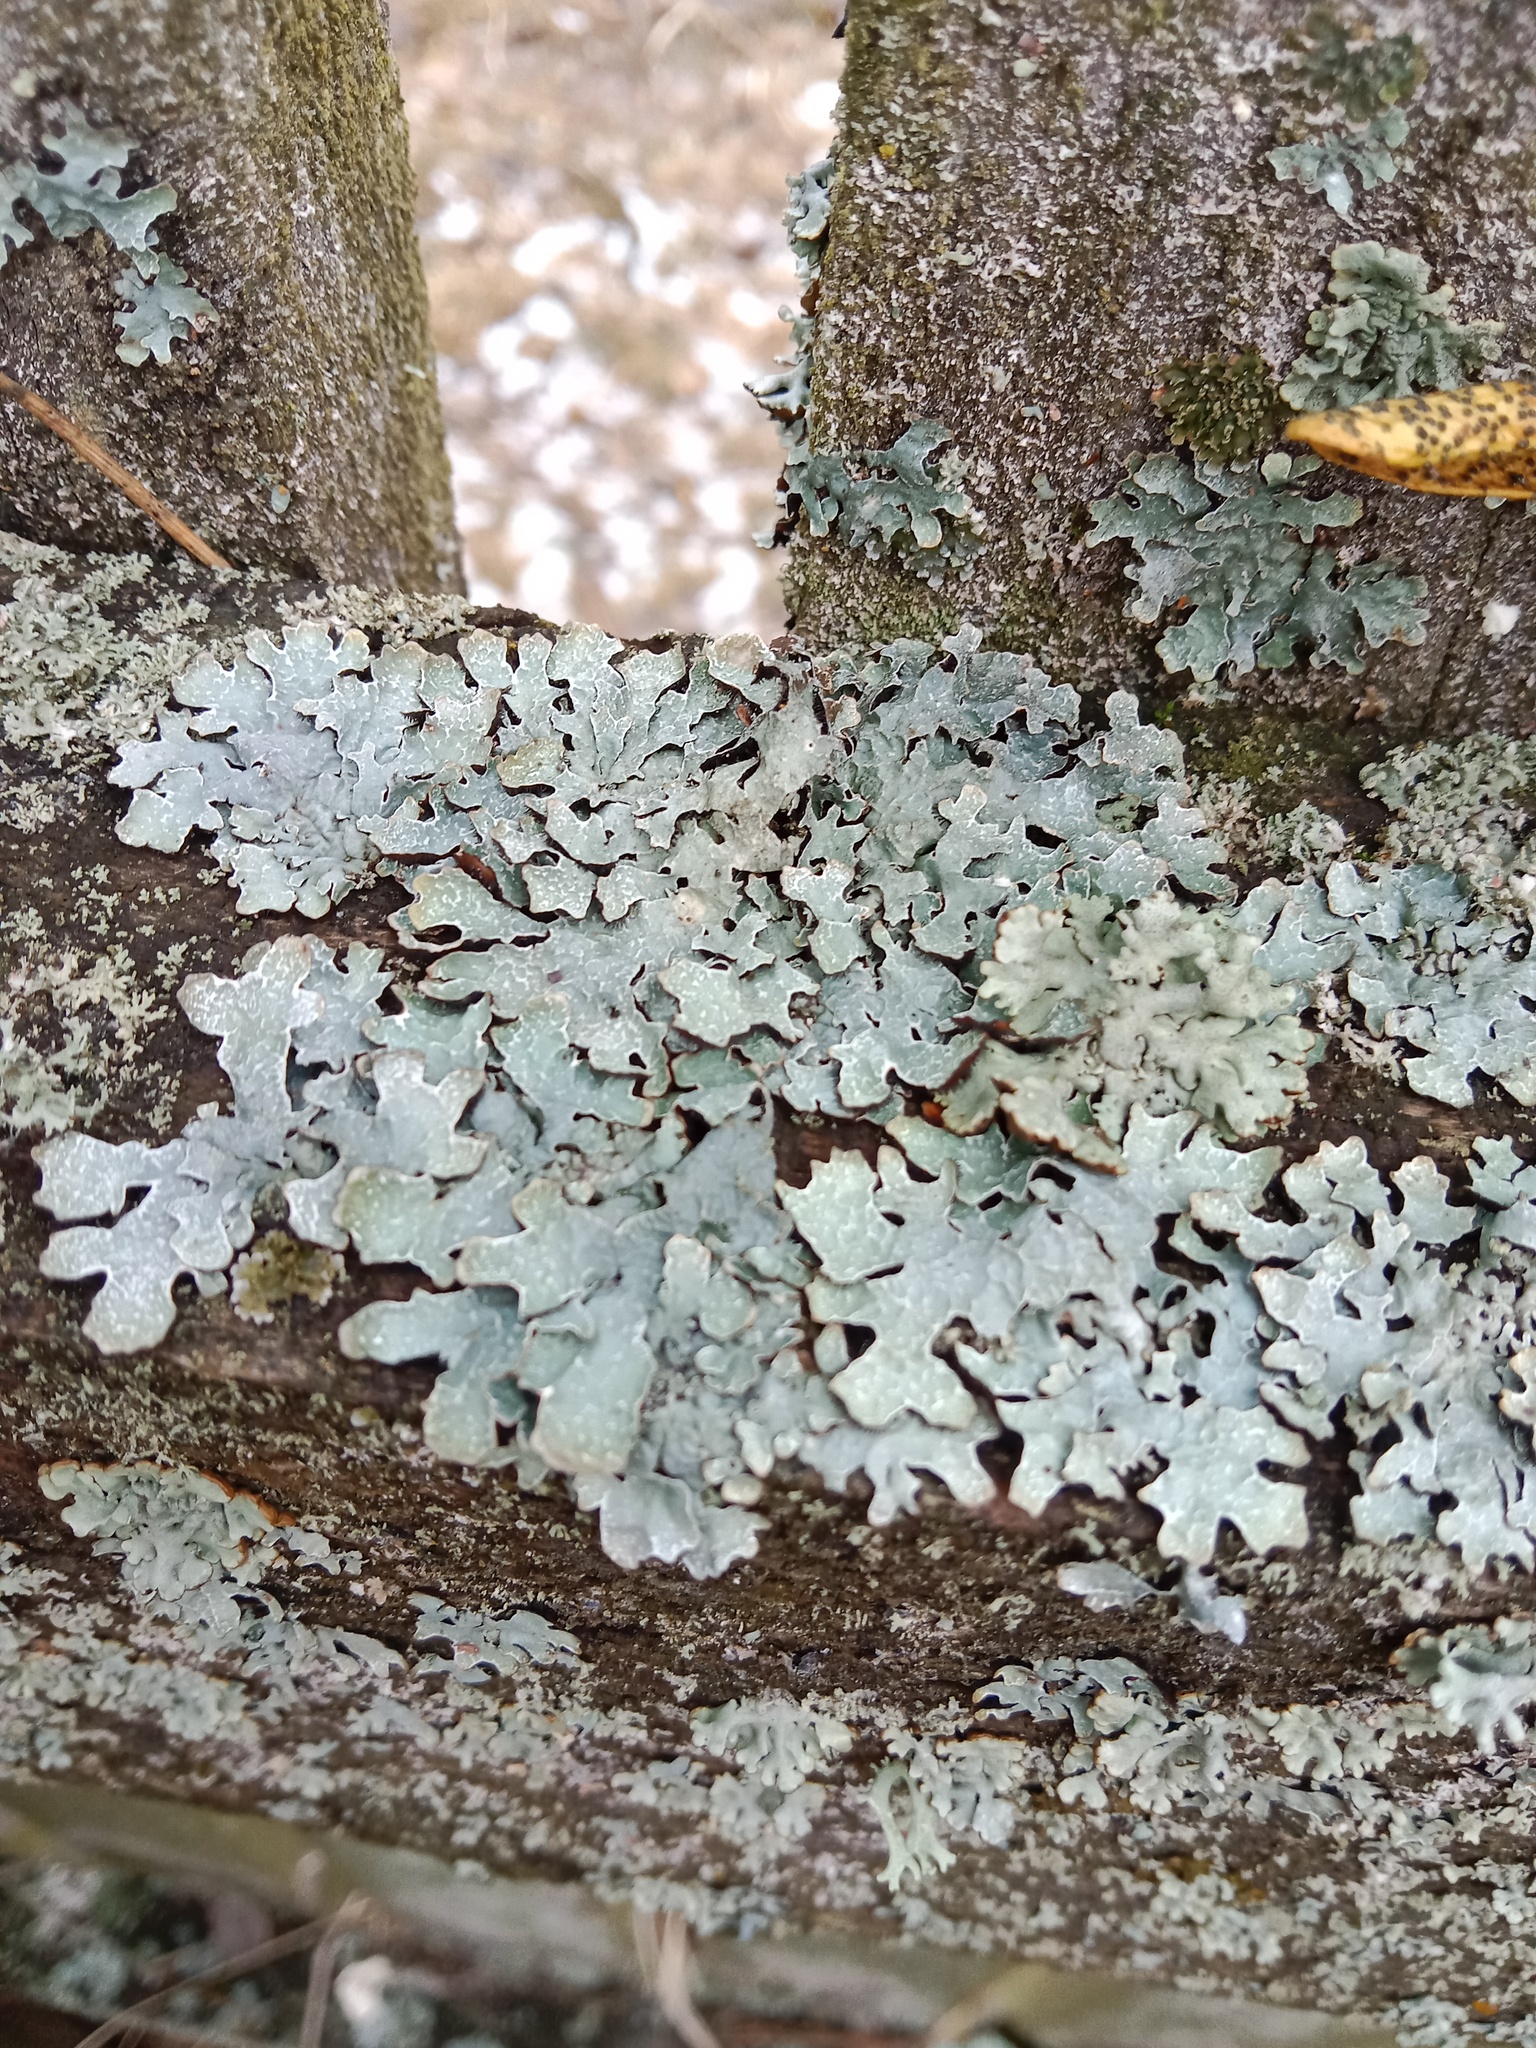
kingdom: Fungi
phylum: Ascomycota
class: Lecanoromycetes
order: Lecanorales
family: Parmeliaceae
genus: Parmelia
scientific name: Parmelia sulcata
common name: Netted shield lichen
